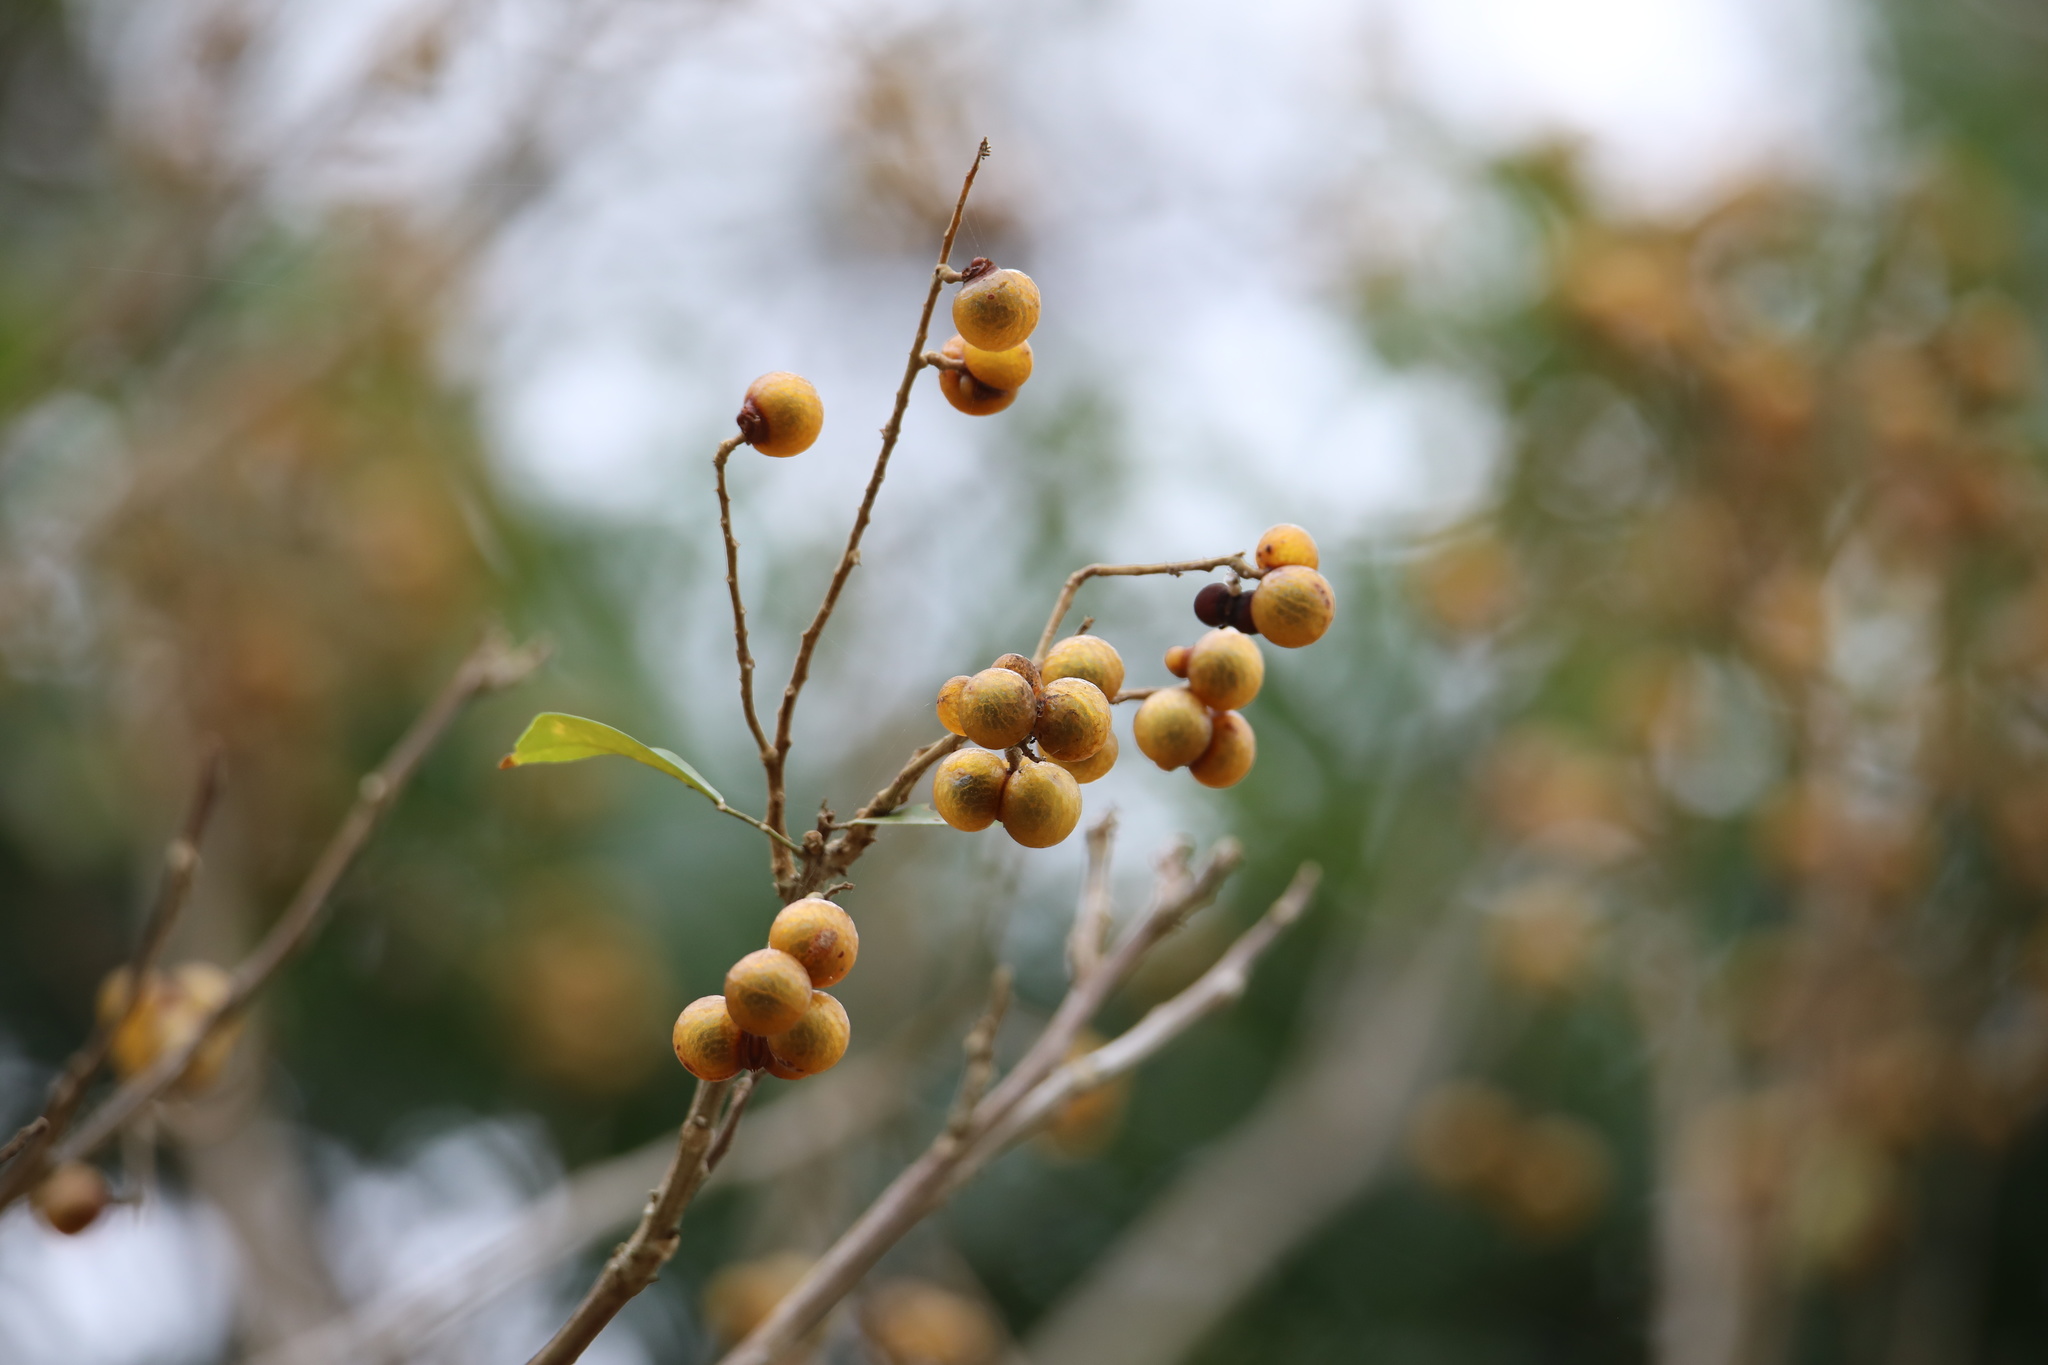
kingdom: Plantae
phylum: Tracheophyta
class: Magnoliopsida
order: Sapindales
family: Sapindaceae
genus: Sapindus
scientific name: Sapindus saponaria
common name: Wingleaf soapberry
